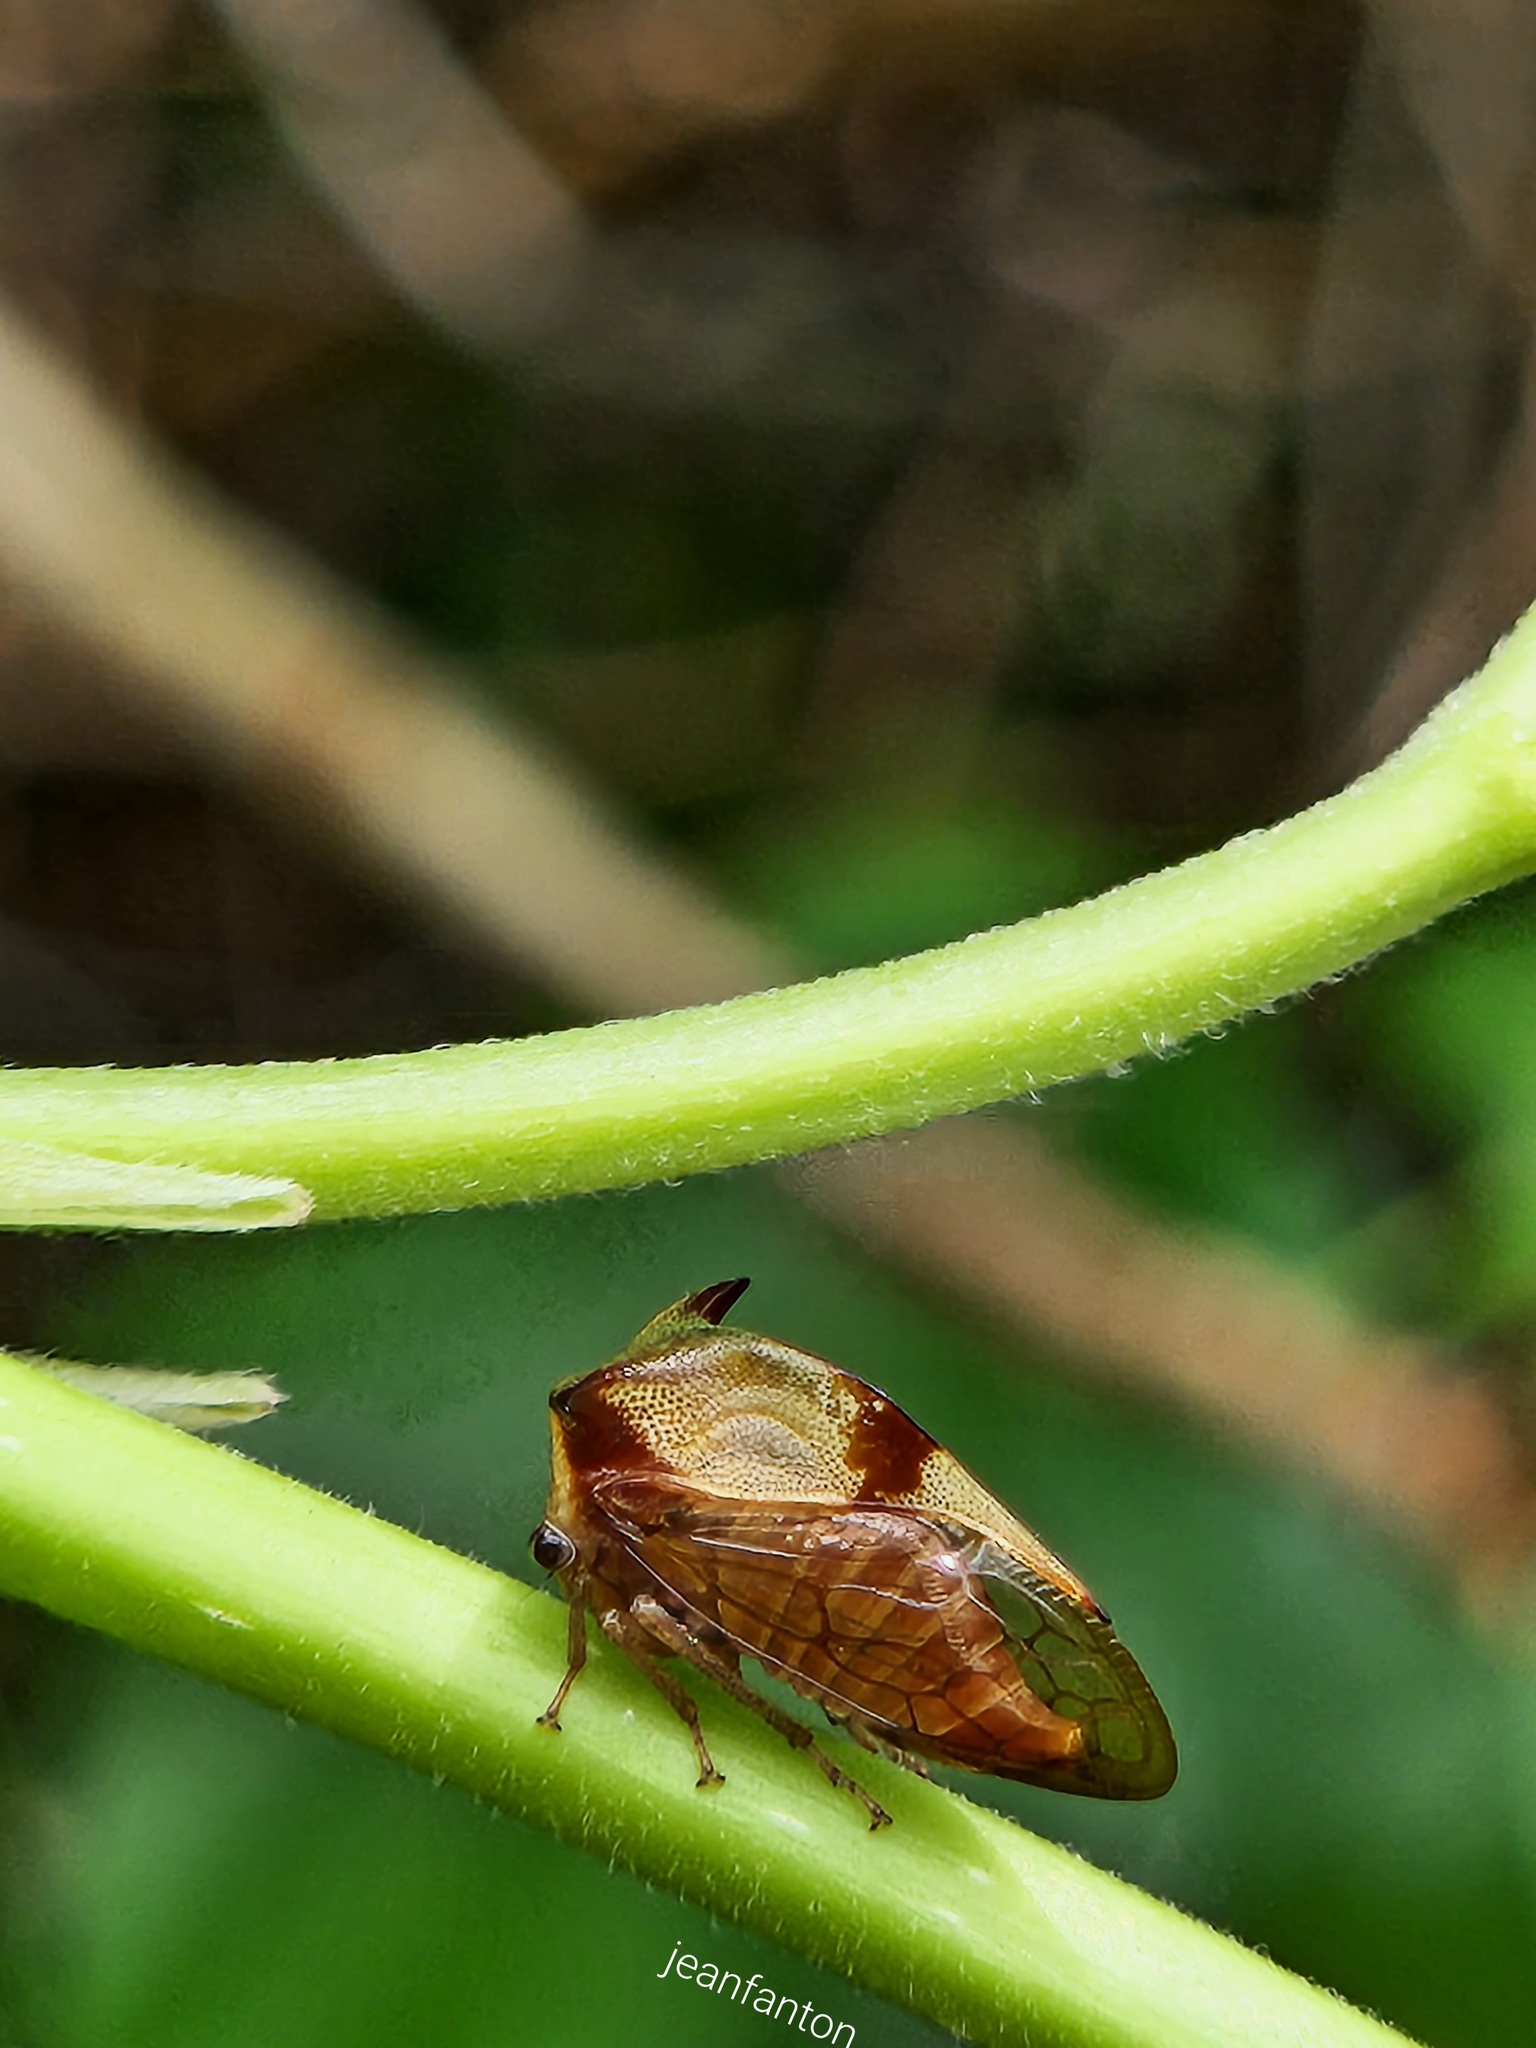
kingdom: Animalia
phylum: Arthropoda
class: Insecta
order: Hemiptera
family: Membracidae
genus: Ceresa
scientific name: Ceresa paulistana
